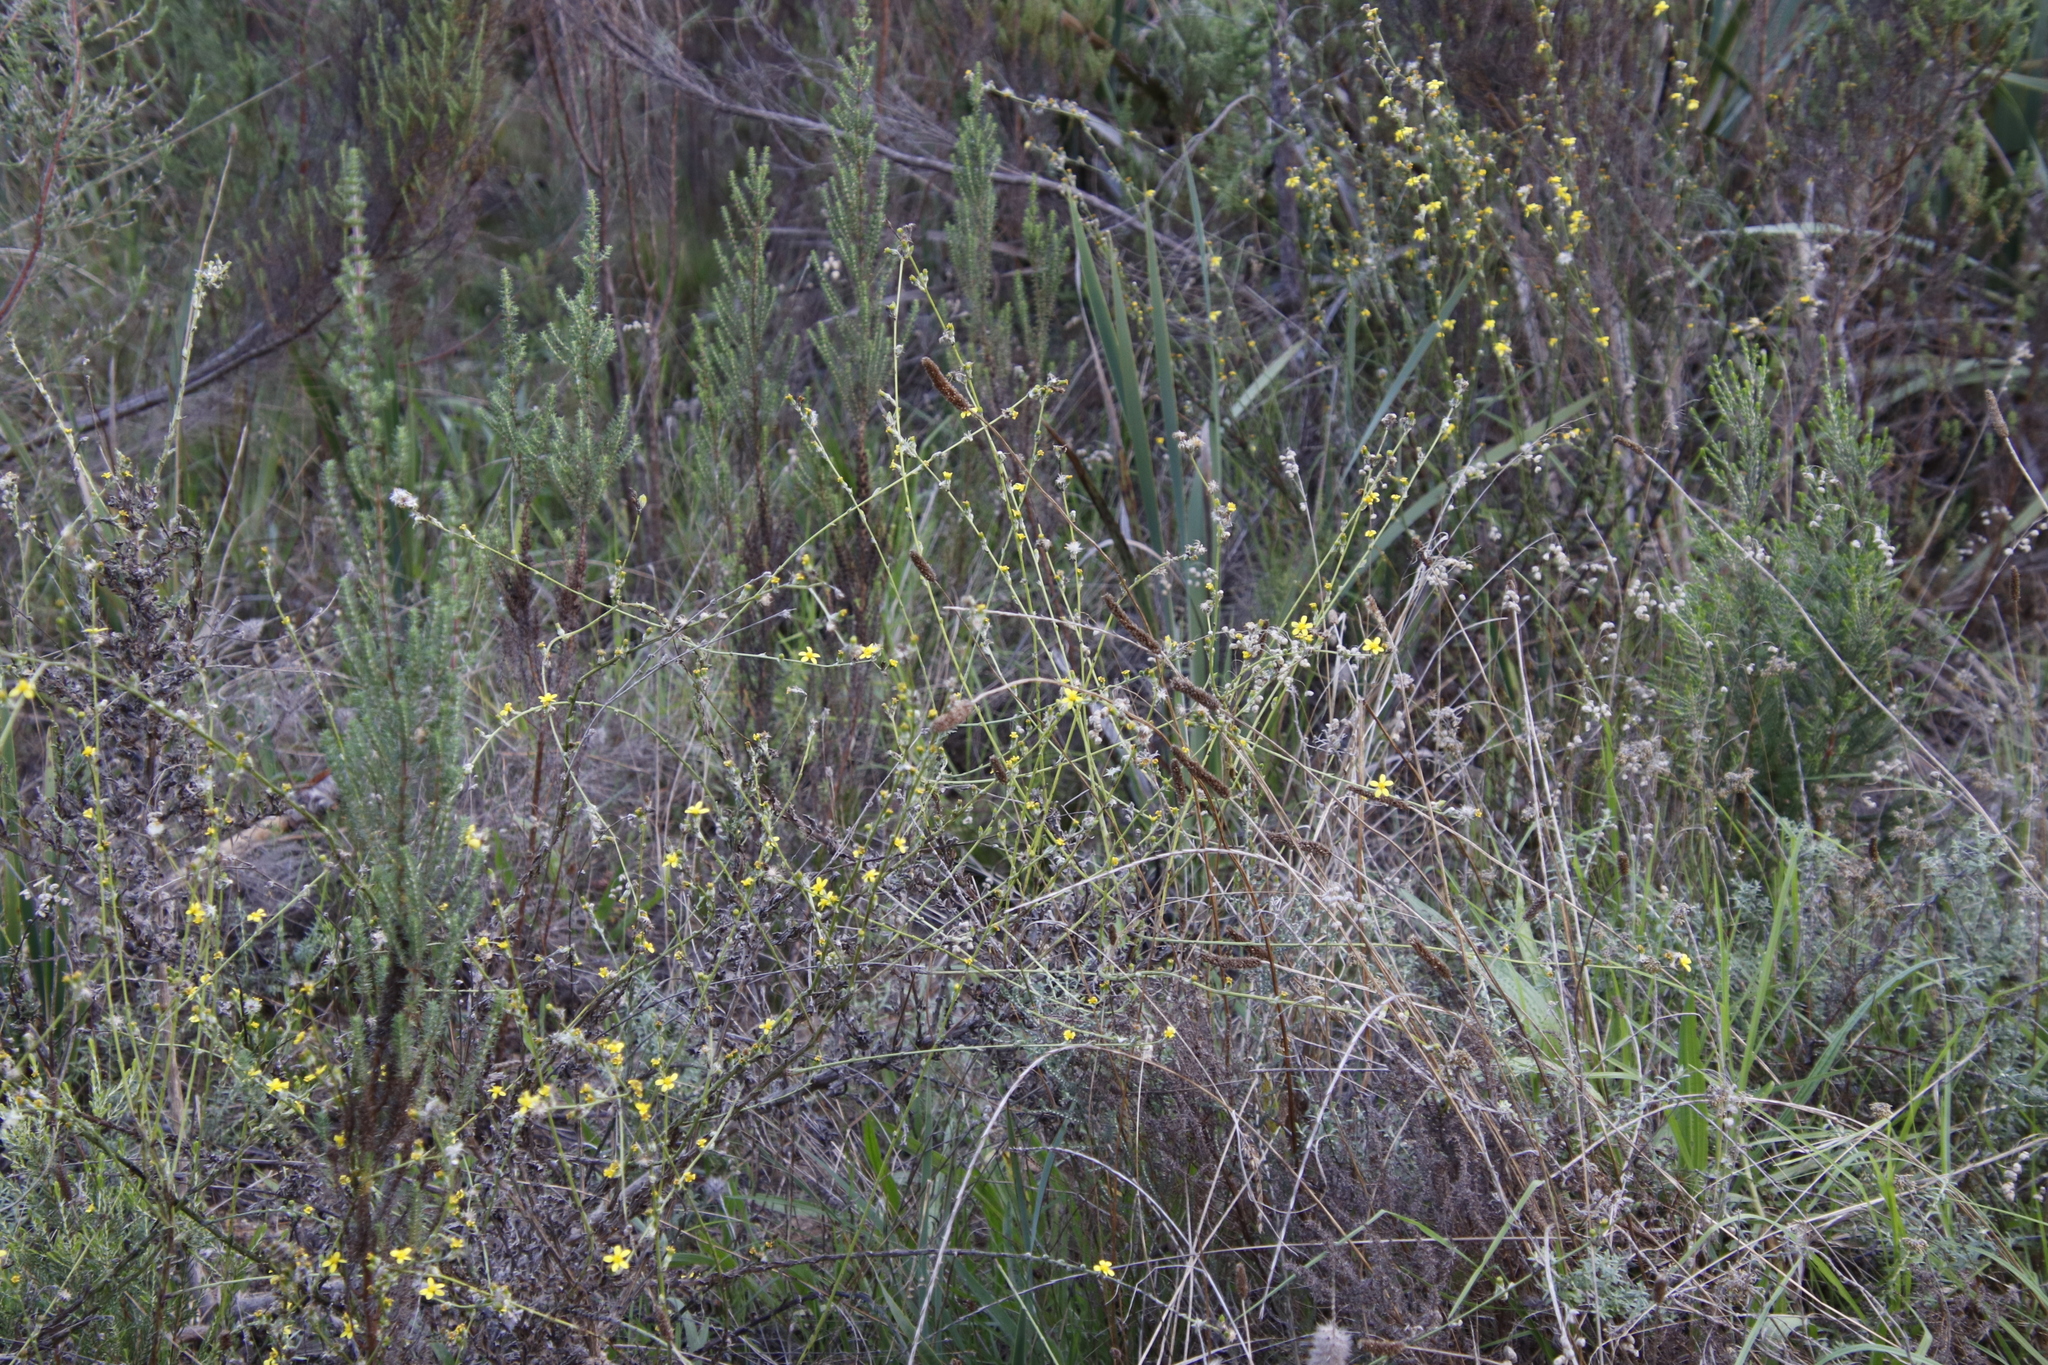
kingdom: Plantae
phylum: Tracheophyta
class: Magnoliopsida
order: Asterales
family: Asteraceae
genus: Senecio
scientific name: Senecio pubigerus
